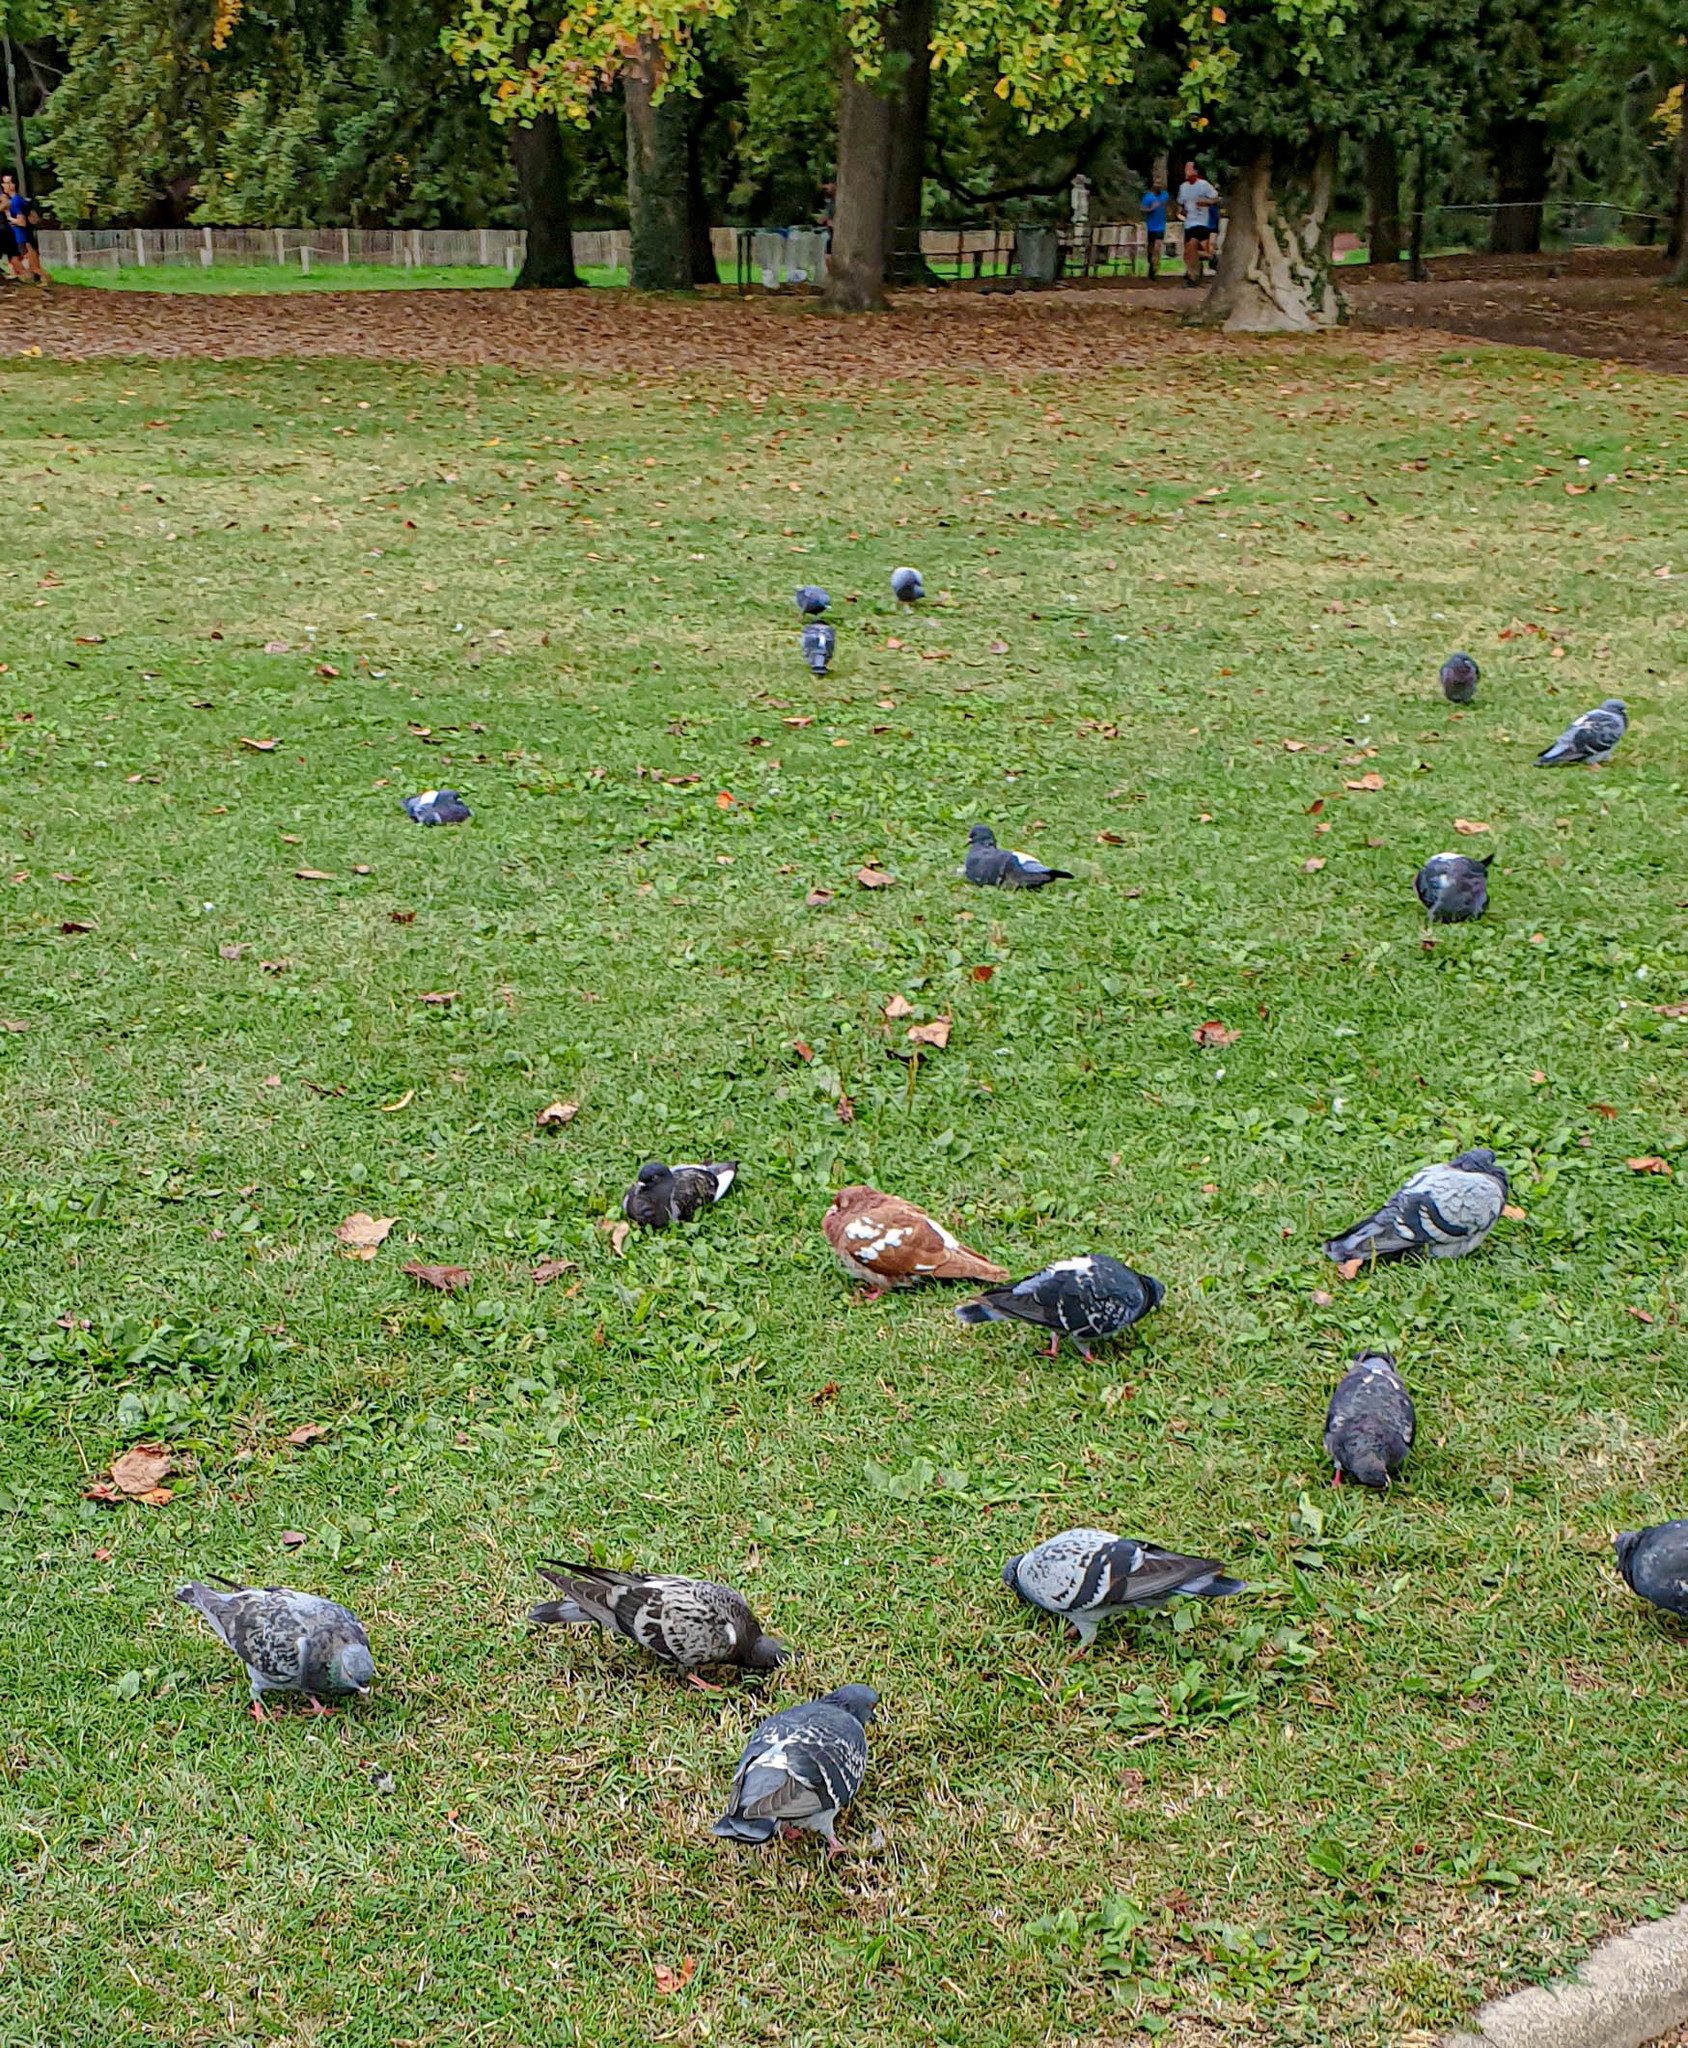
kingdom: Animalia
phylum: Chordata
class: Aves
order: Columbiformes
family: Columbidae
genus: Columba
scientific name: Columba livia
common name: Rock pigeon
